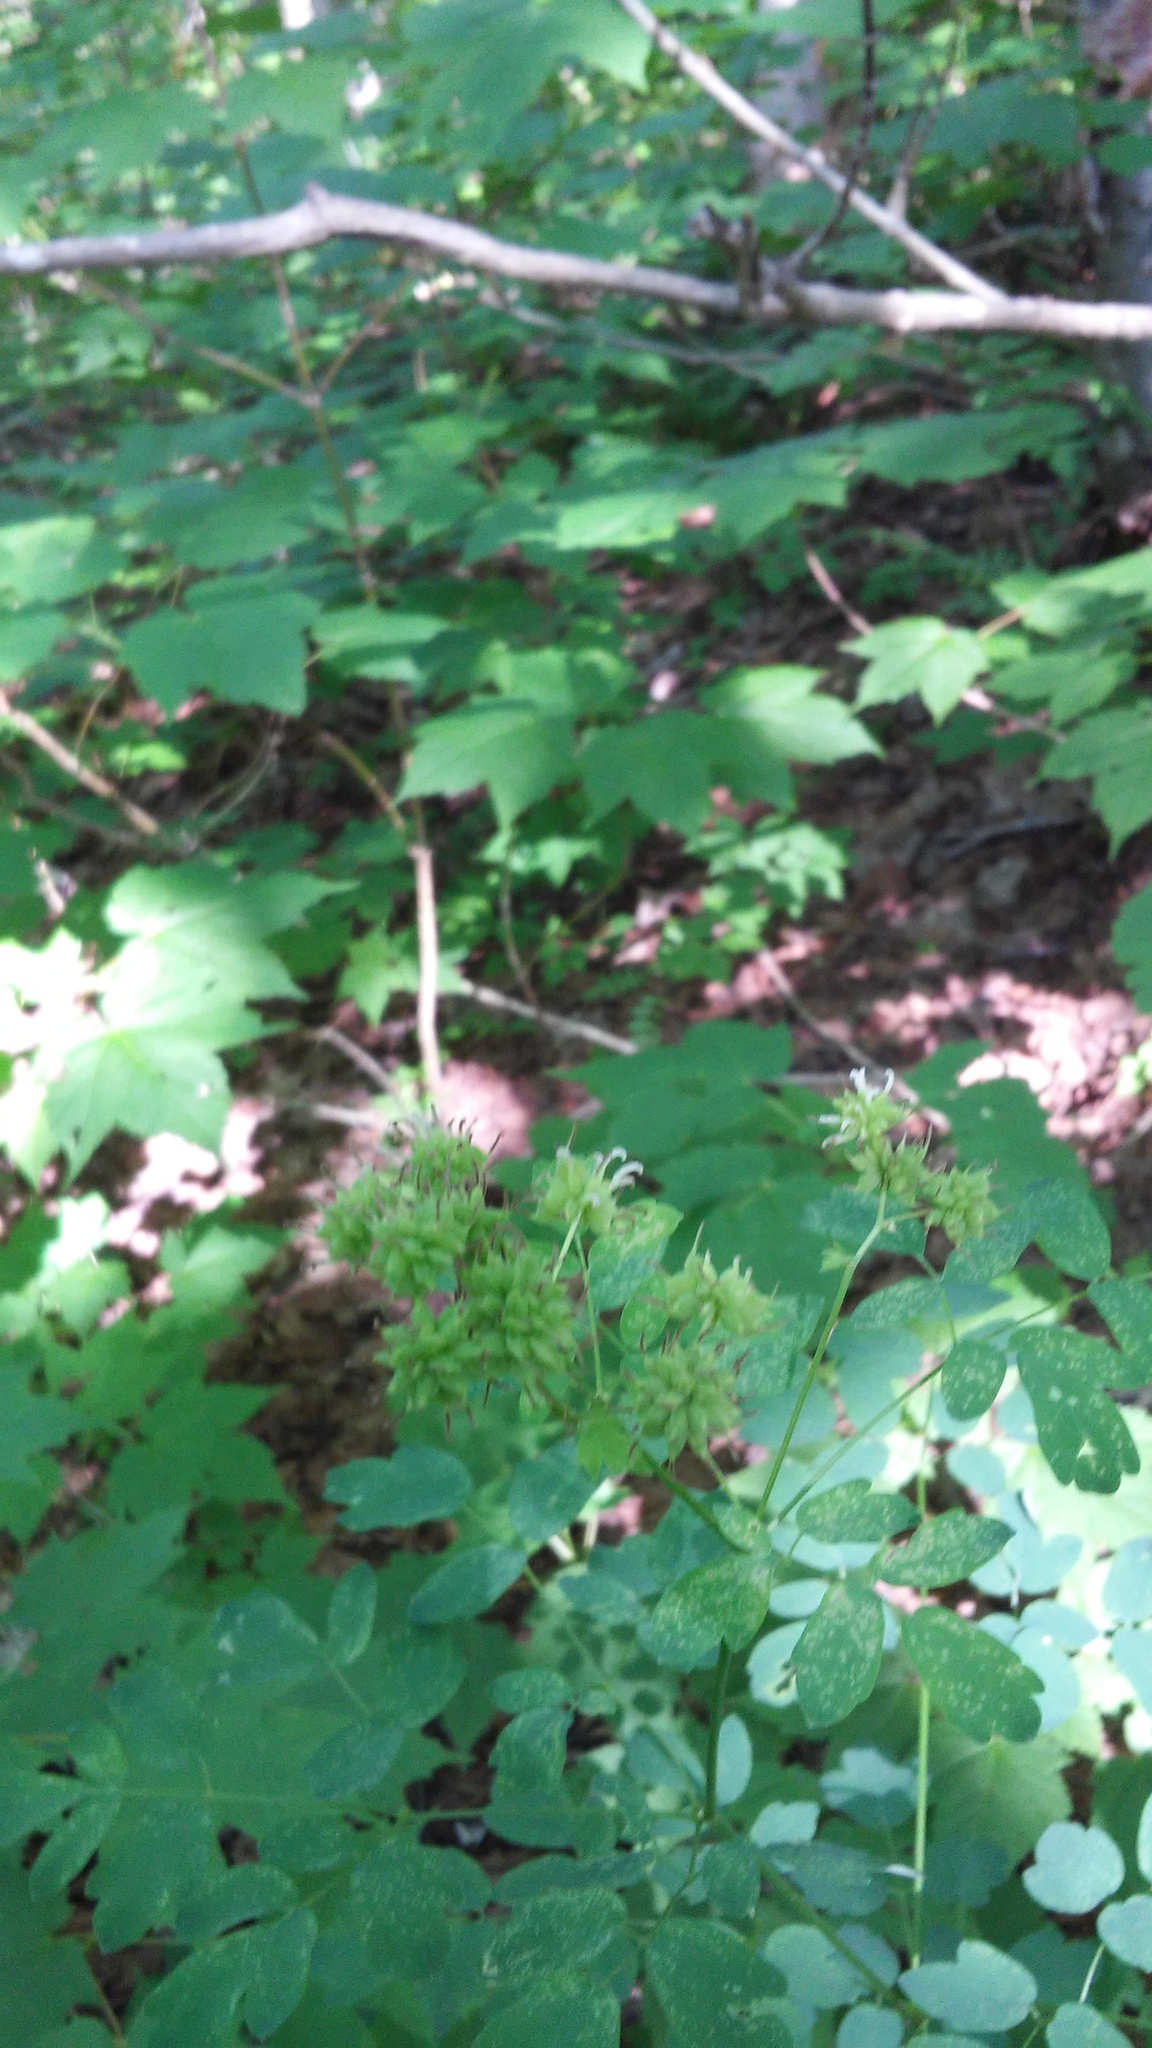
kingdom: Plantae
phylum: Tracheophyta
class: Magnoliopsida
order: Ranunculales
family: Ranunculaceae
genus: Thalictrum
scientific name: Thalictrum pubescens
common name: King-of-the-meadow
